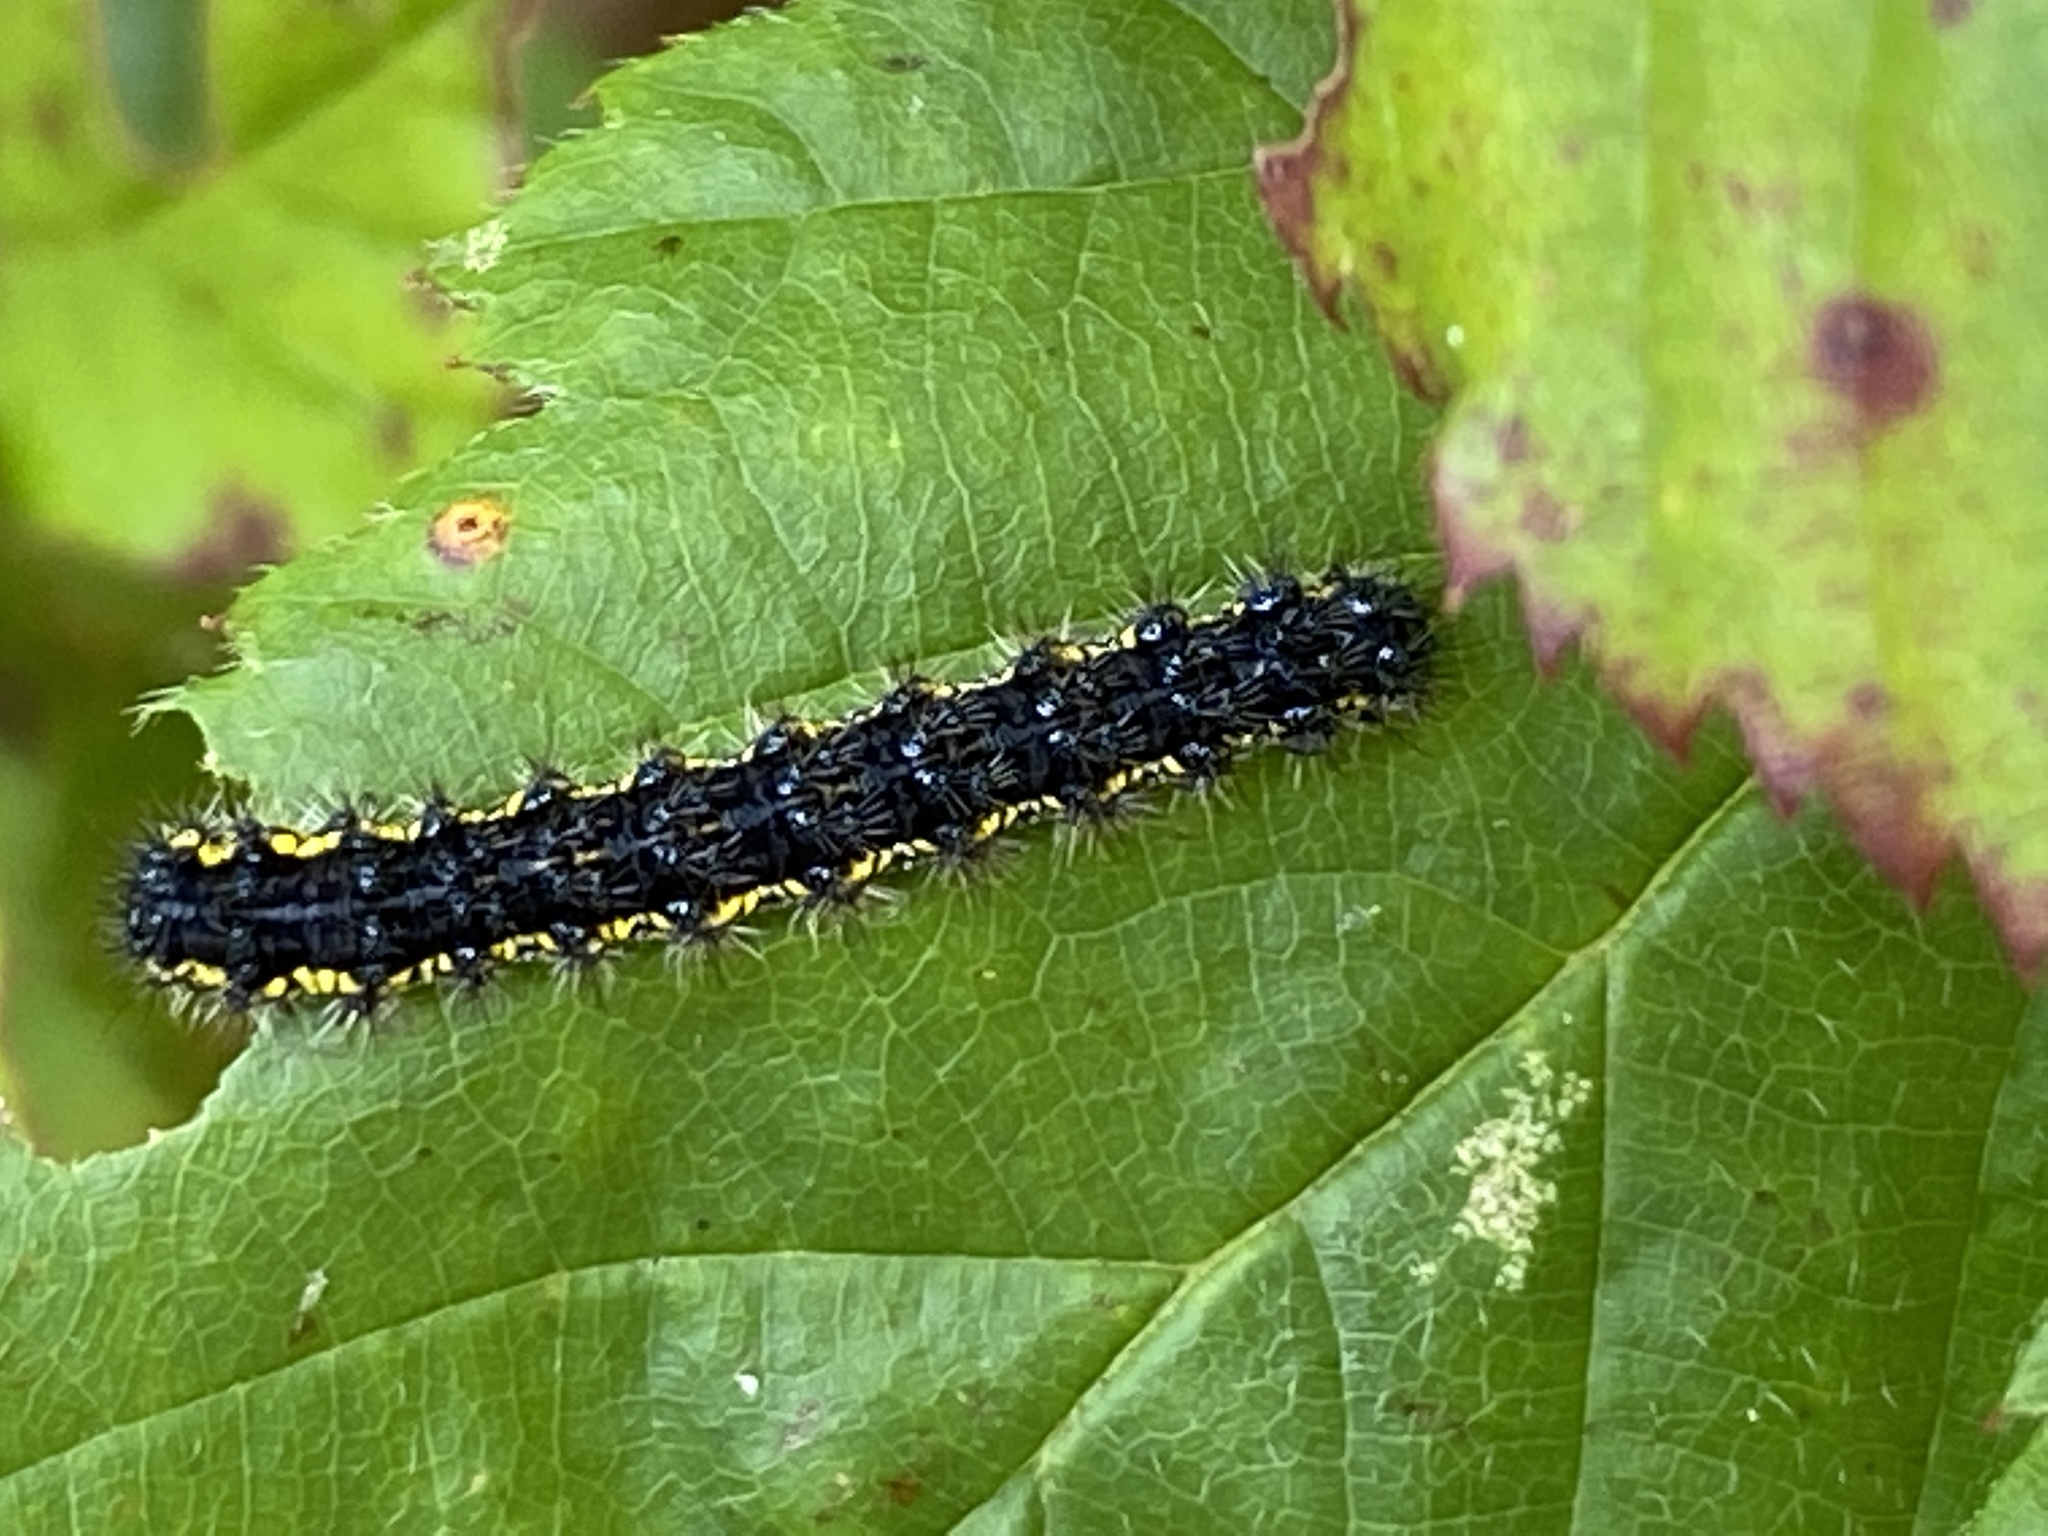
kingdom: Animalia
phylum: Arthropoda
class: Insecta
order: Lepidoptera
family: Erebidae
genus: Haploa
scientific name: Haploa lecontei
